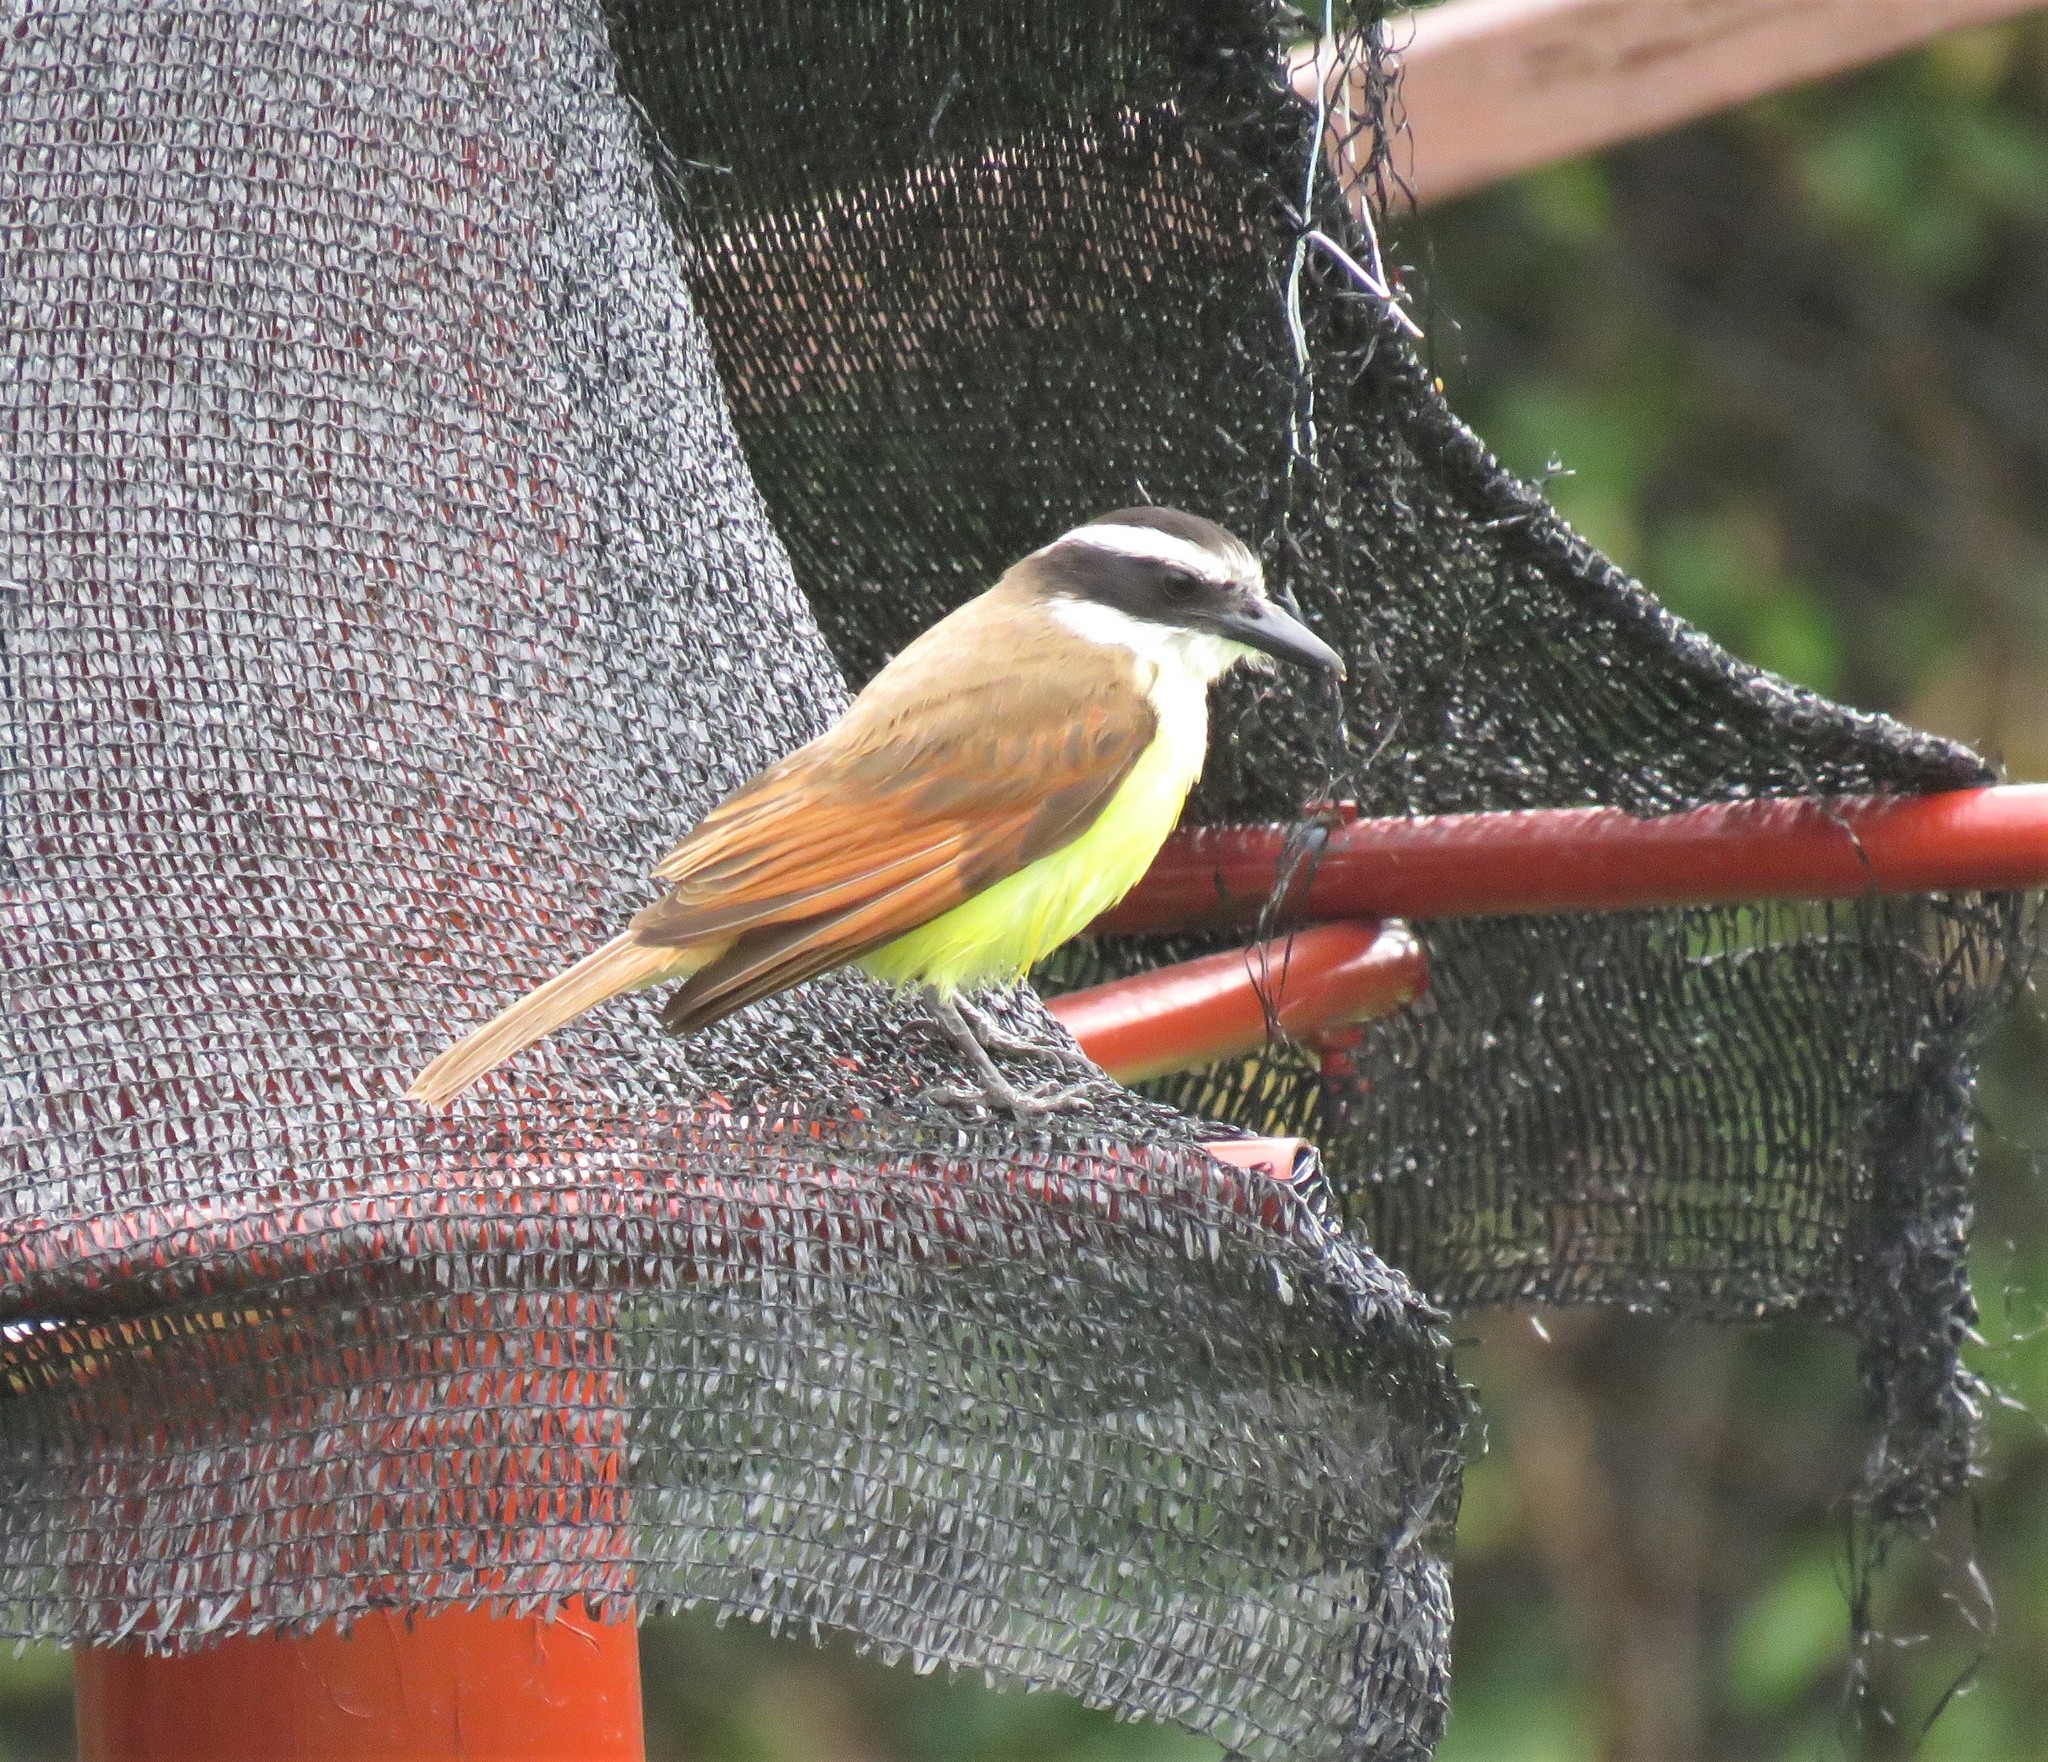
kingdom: Animalia
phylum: Chordata
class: Aves
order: Passeriformes
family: Tyrannidae
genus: Pitangus
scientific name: Pitangus sulphuratus
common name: Great kiskadee
